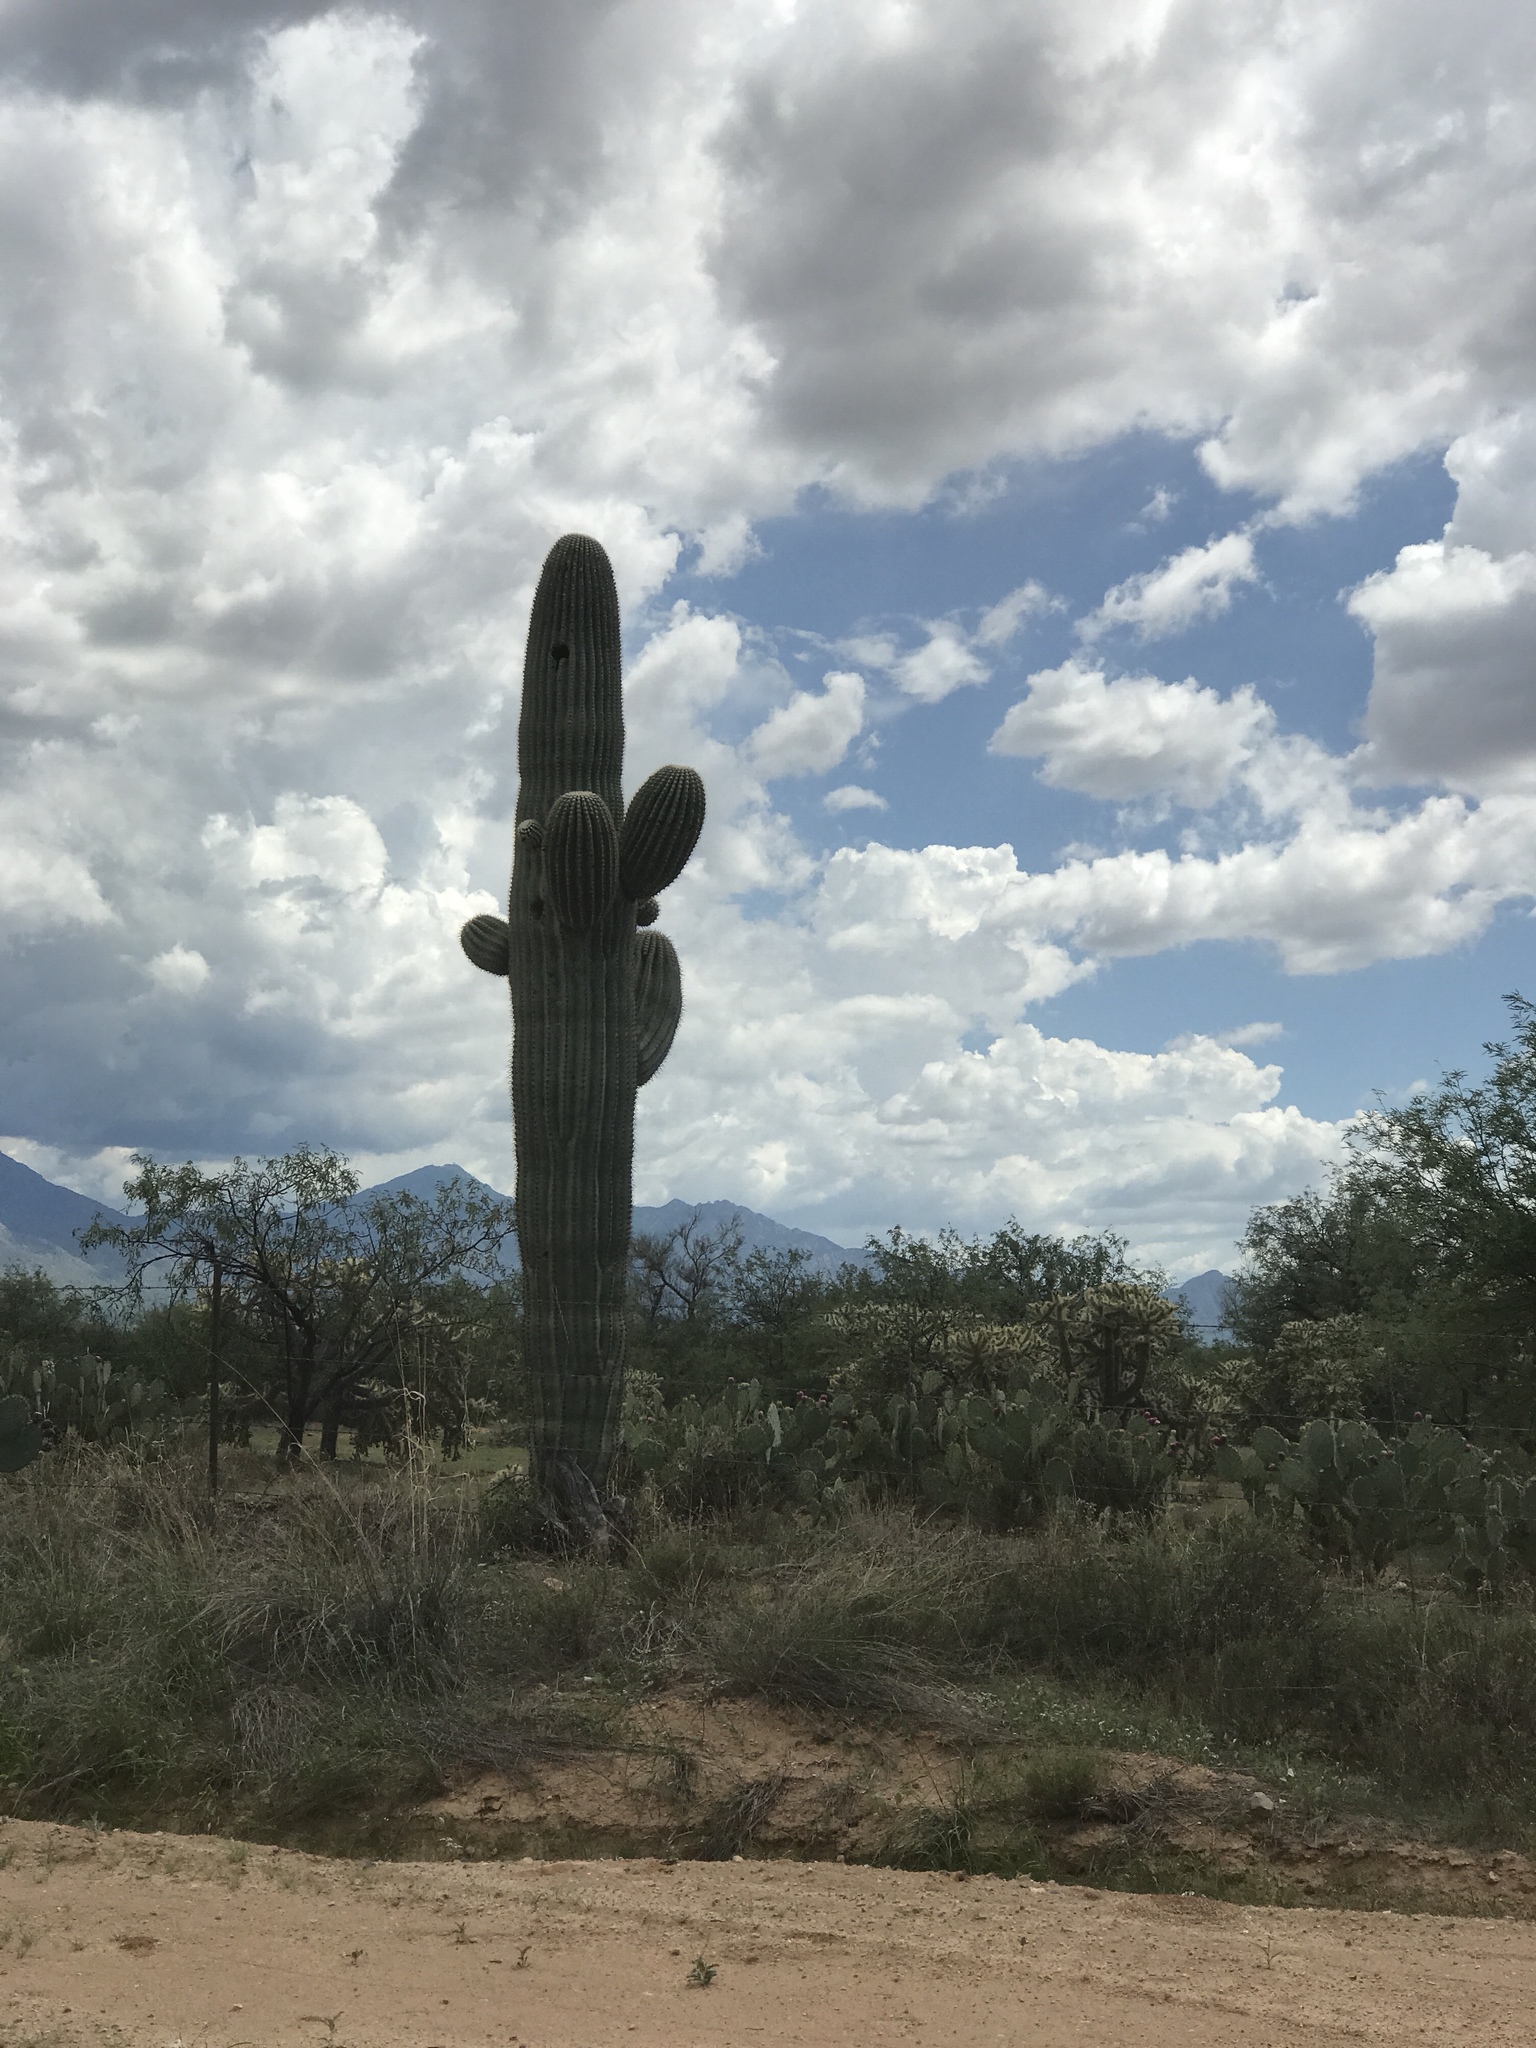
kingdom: Plantae
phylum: Tracheophyta
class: Magnoliopsida
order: Caryophyllales
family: Cactaceae
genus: Carnegiea
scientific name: Carnegiea gigantea
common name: Saguaro
